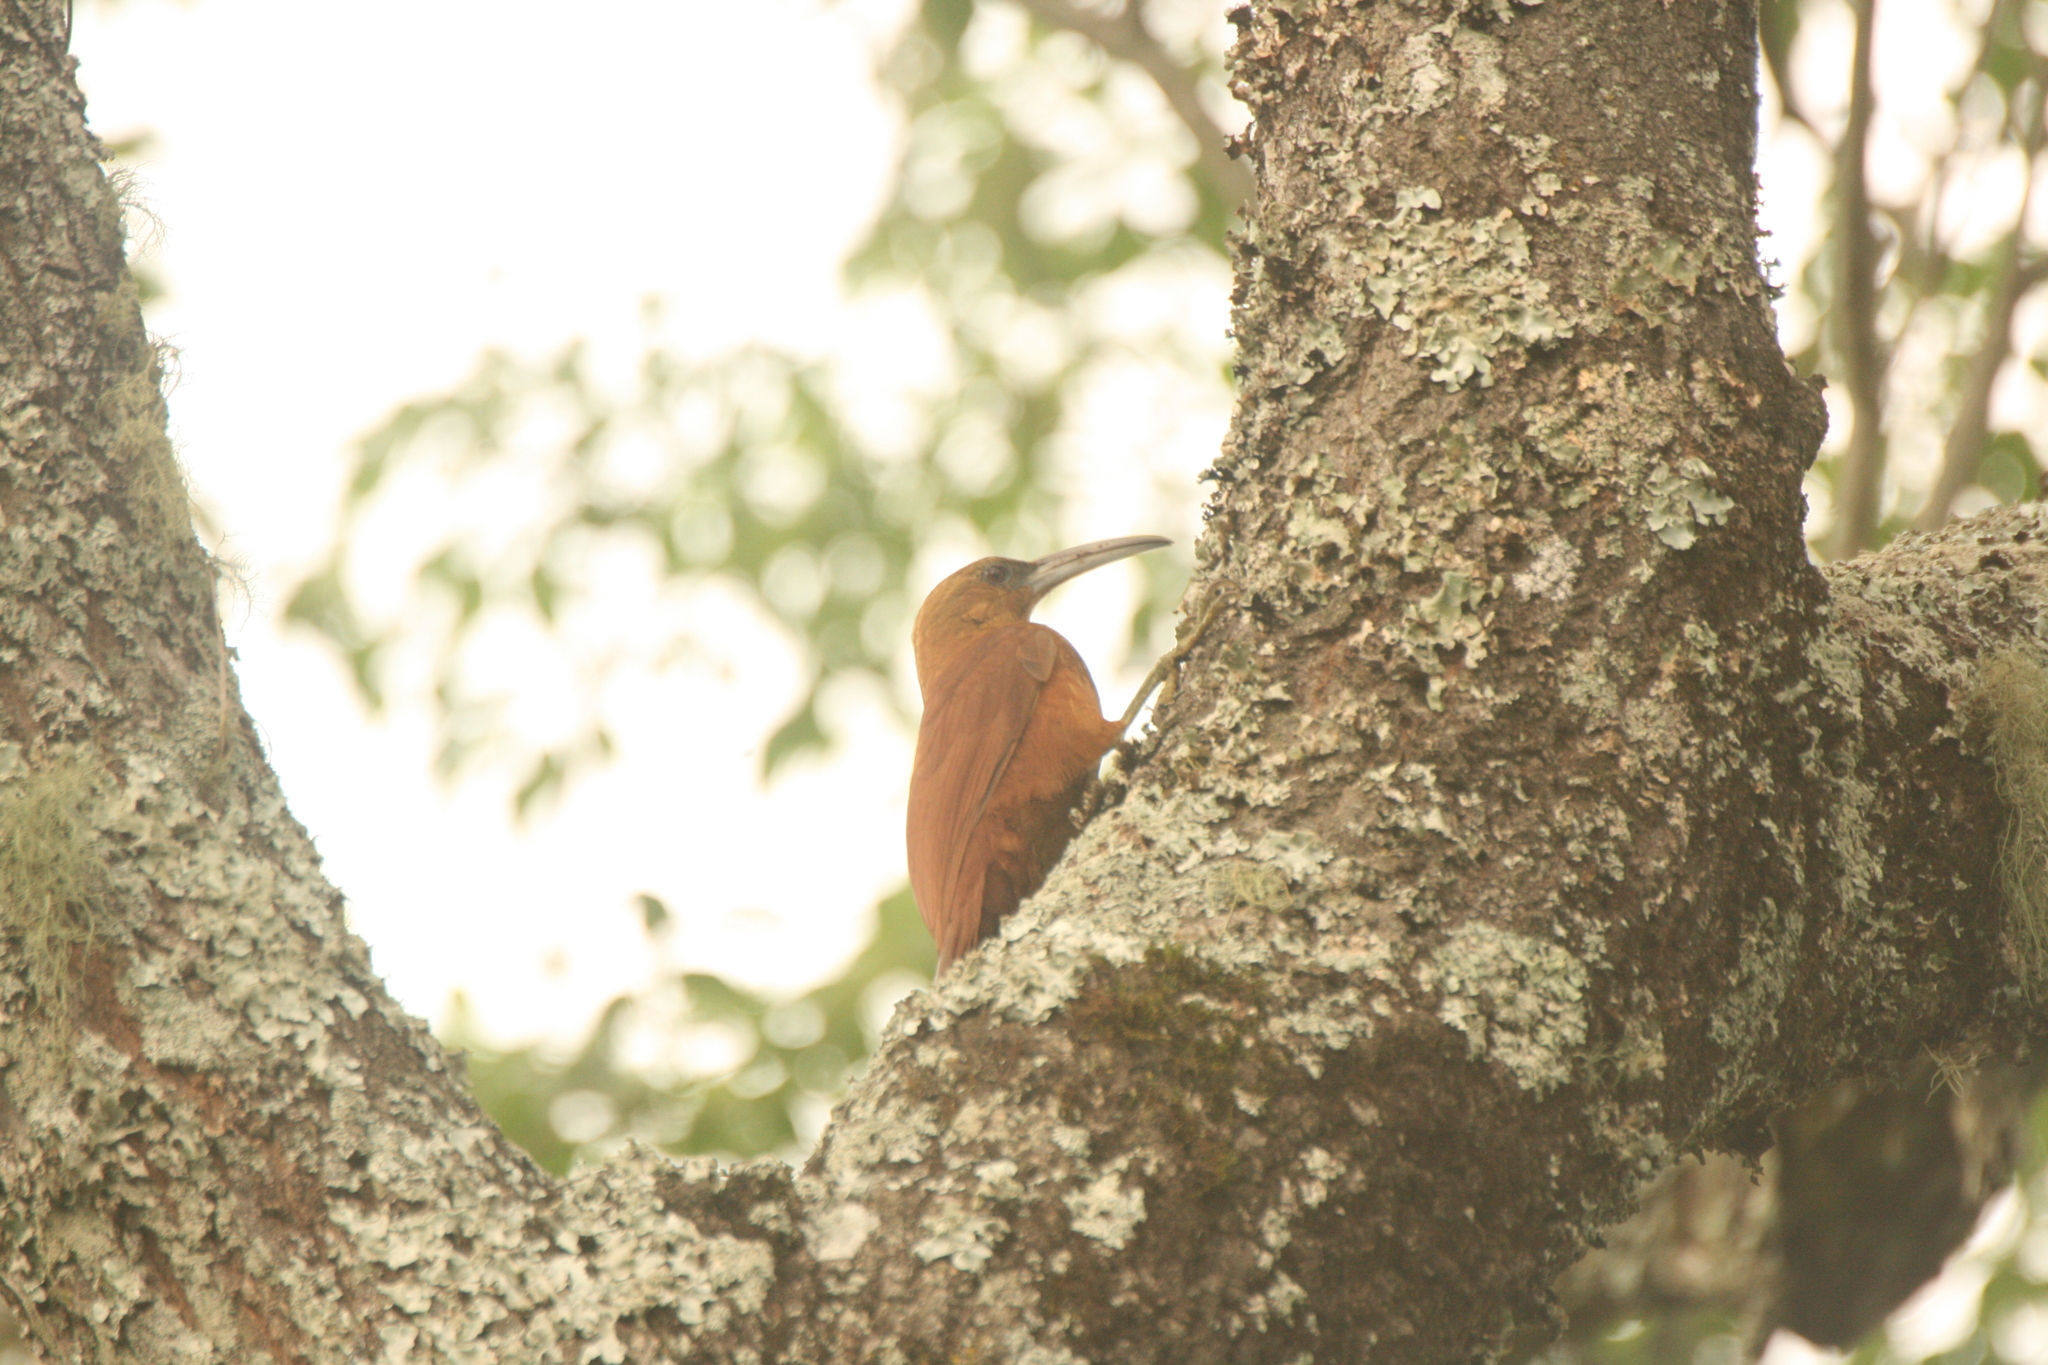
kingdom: Animalia
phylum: Chordata
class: Aves
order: Passeriformes
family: Furnariidae
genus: Xiphocolaptes
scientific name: Xiphocolaptes major
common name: Great rufous woodcreeper
